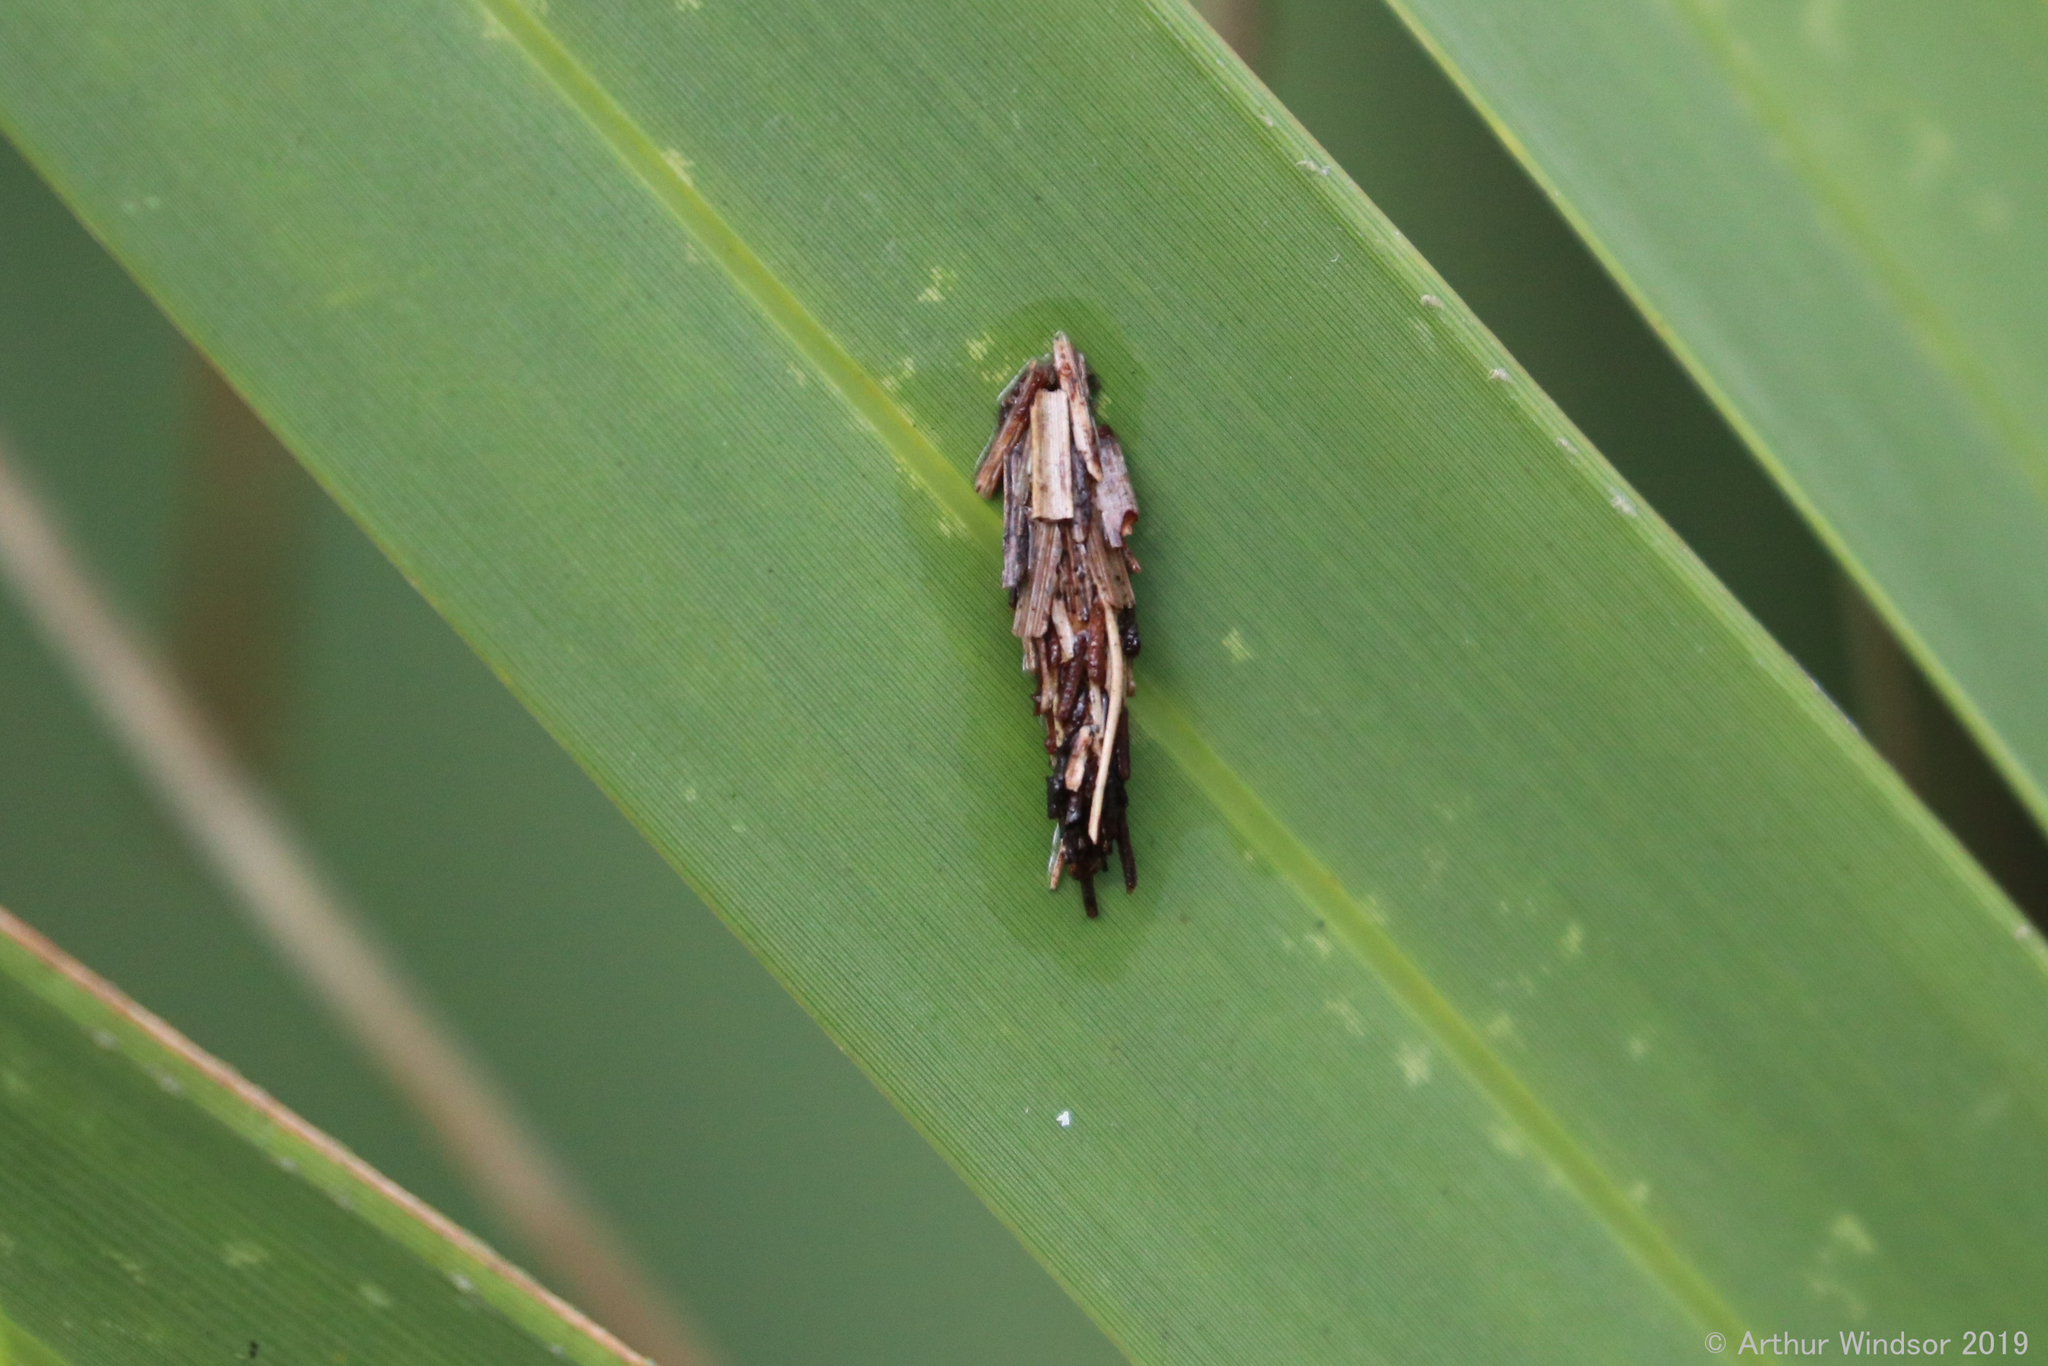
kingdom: Animalia
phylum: Arthropoda
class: Insecta
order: Lepidoptera
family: Psychidae
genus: Psyche
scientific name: Psyche casta
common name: Common sweep
